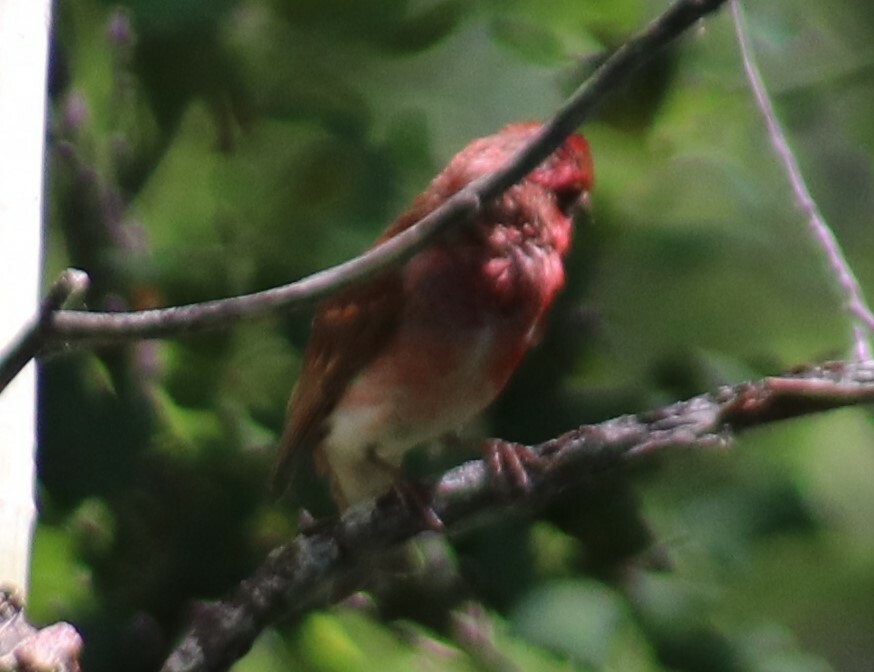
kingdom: Animalia
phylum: Chordata
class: Aves
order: Passeriformes
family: Fringillidae
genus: Haemorhous
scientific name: Haemorhous purpureus
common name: Purple finch
